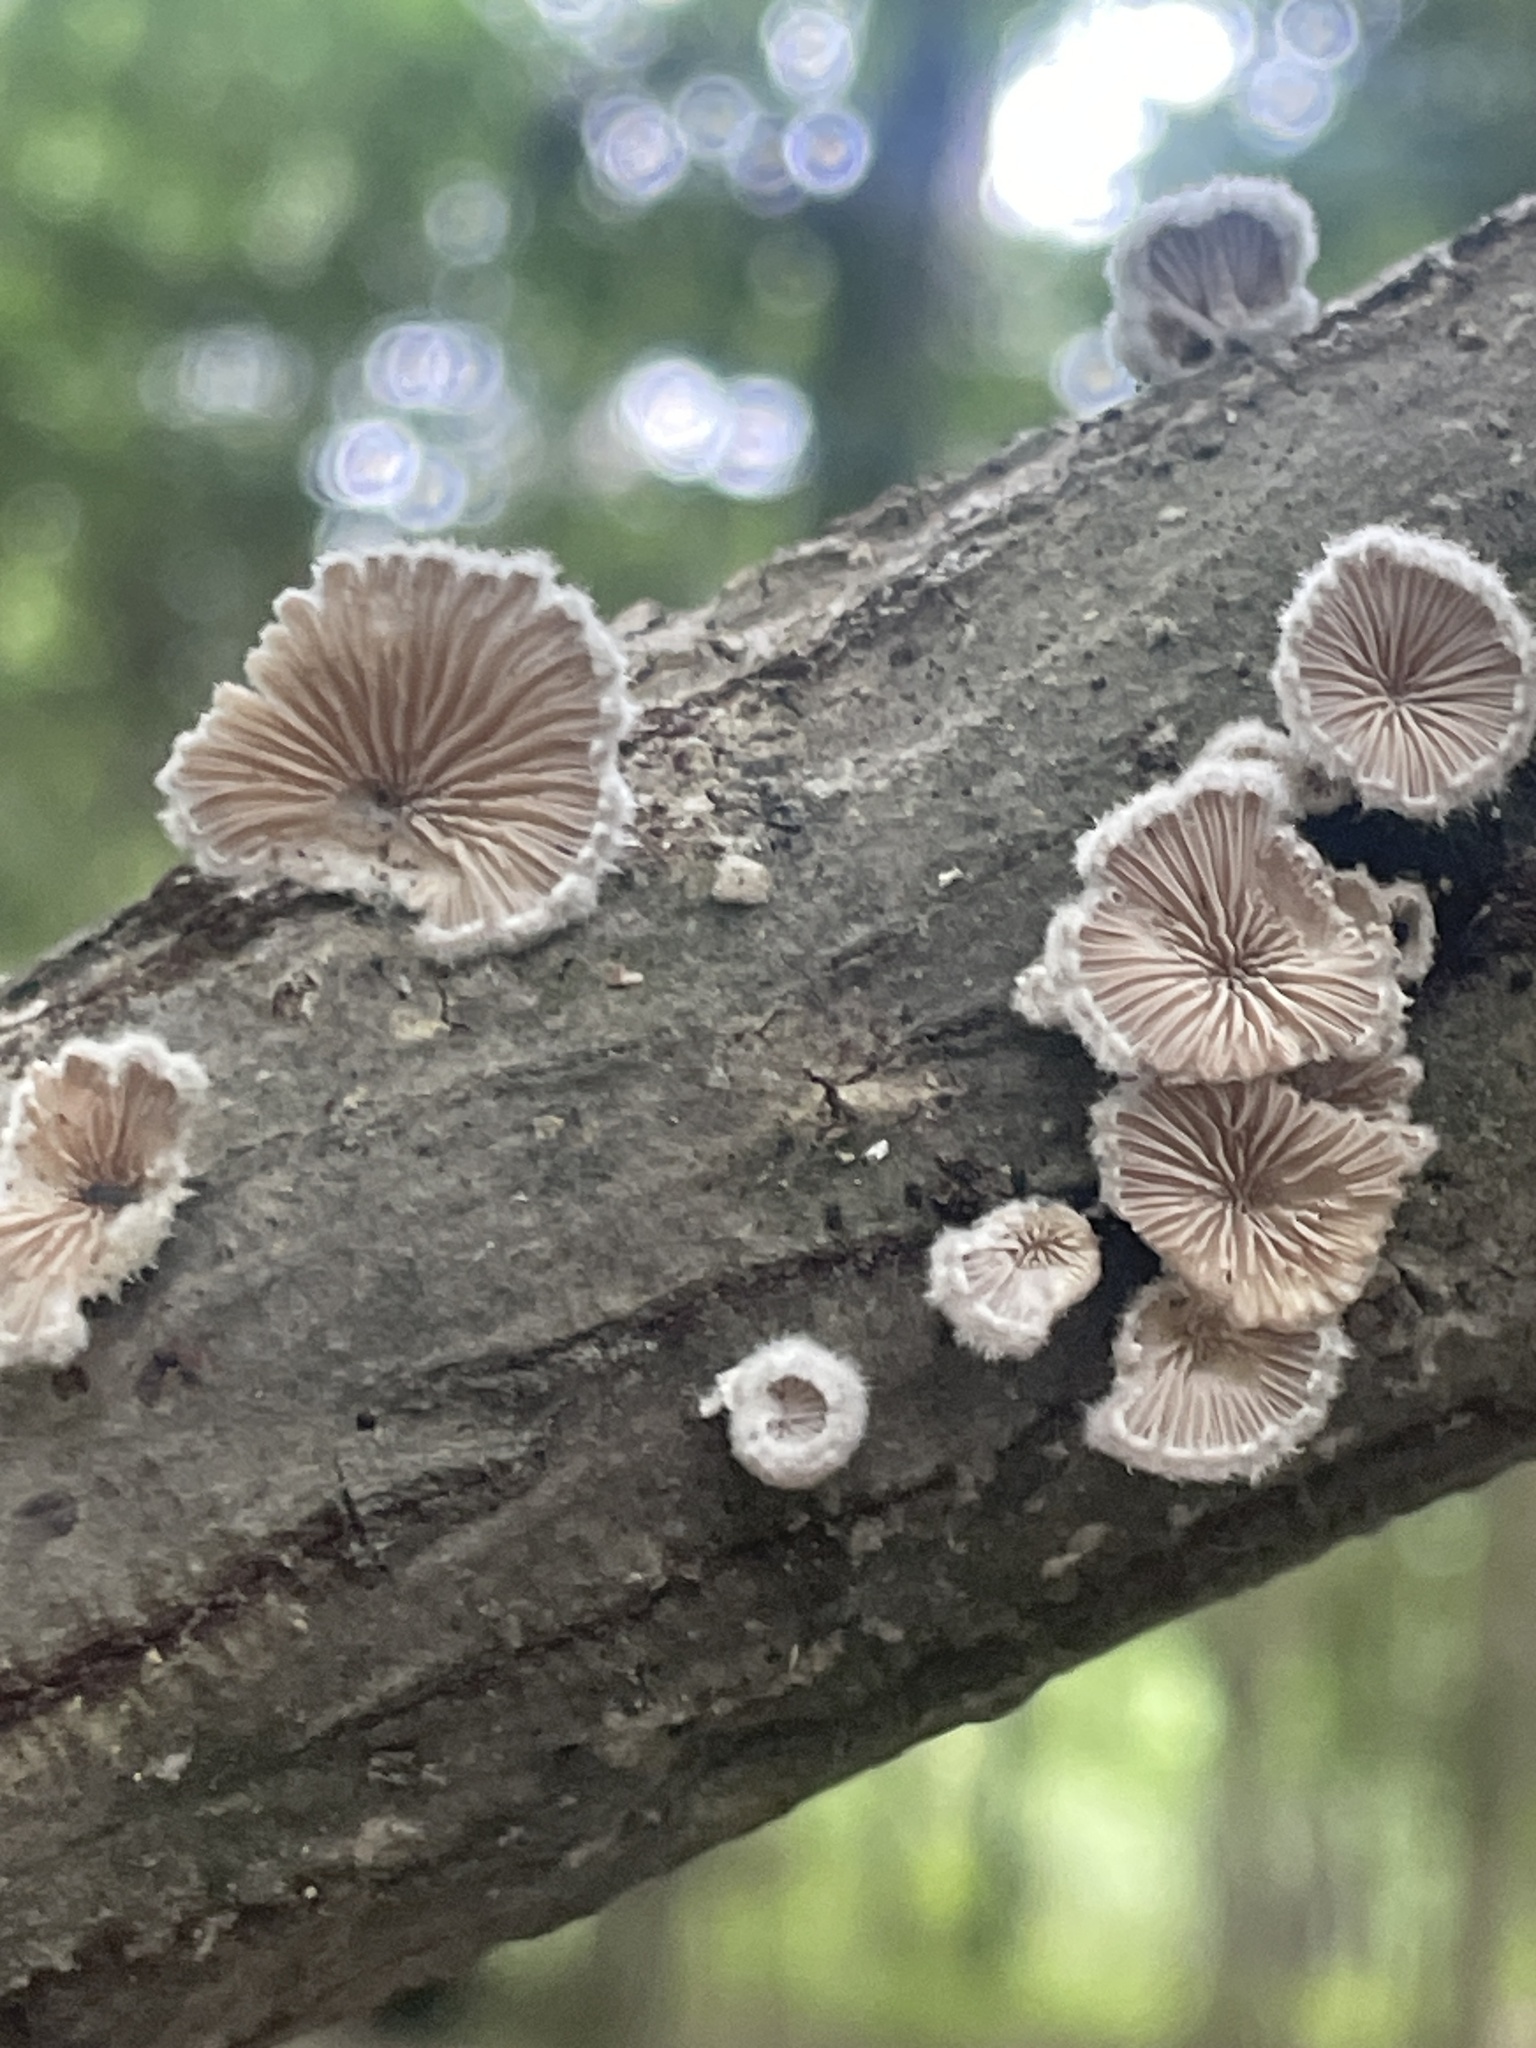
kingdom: Fungi
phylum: Basidiomycota
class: Agaricomycetes
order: Agaricales
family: Schizophyllaceae
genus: Schizophyllum
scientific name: Schizophyllum commune
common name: Common porecrust
